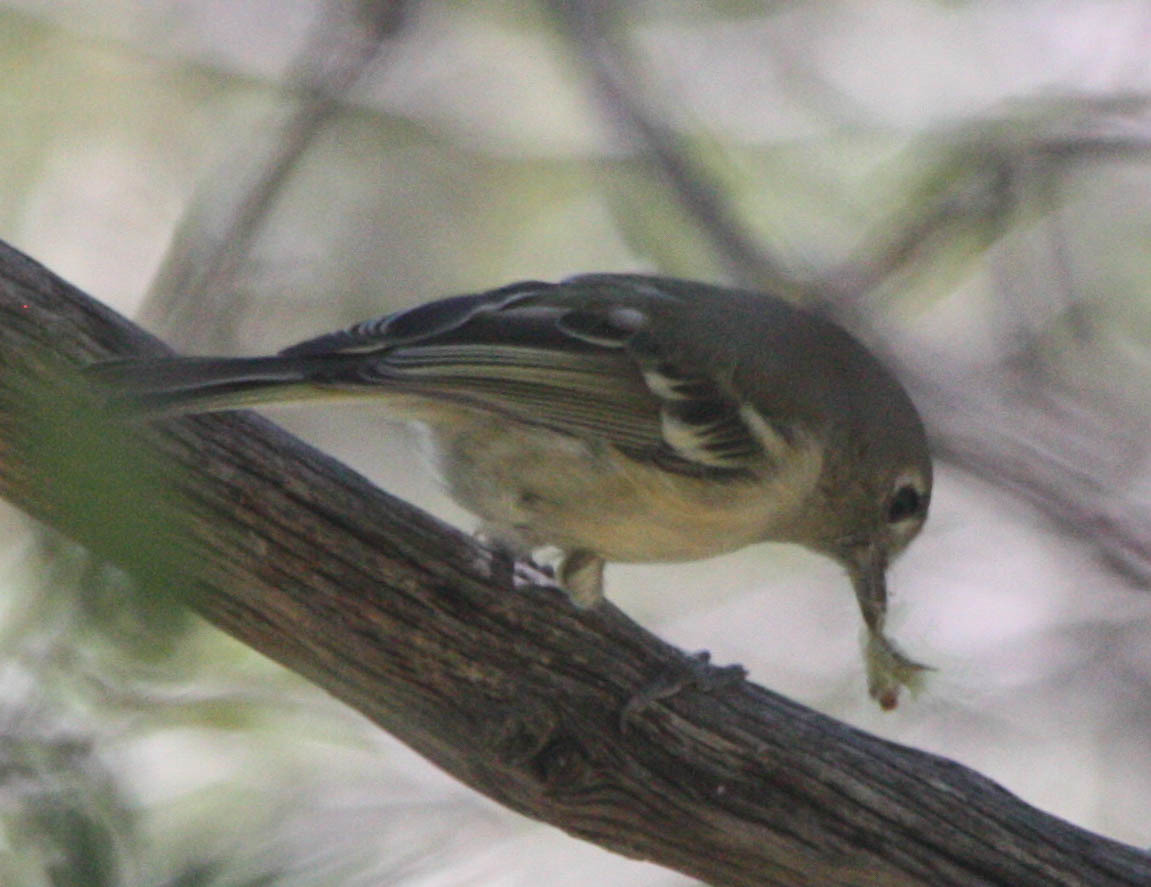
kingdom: Animalia
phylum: Chordata
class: Aves
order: Passeriformes
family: Vireonidae
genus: Vireo
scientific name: Vireo huttoni
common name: Hutton's vireo
